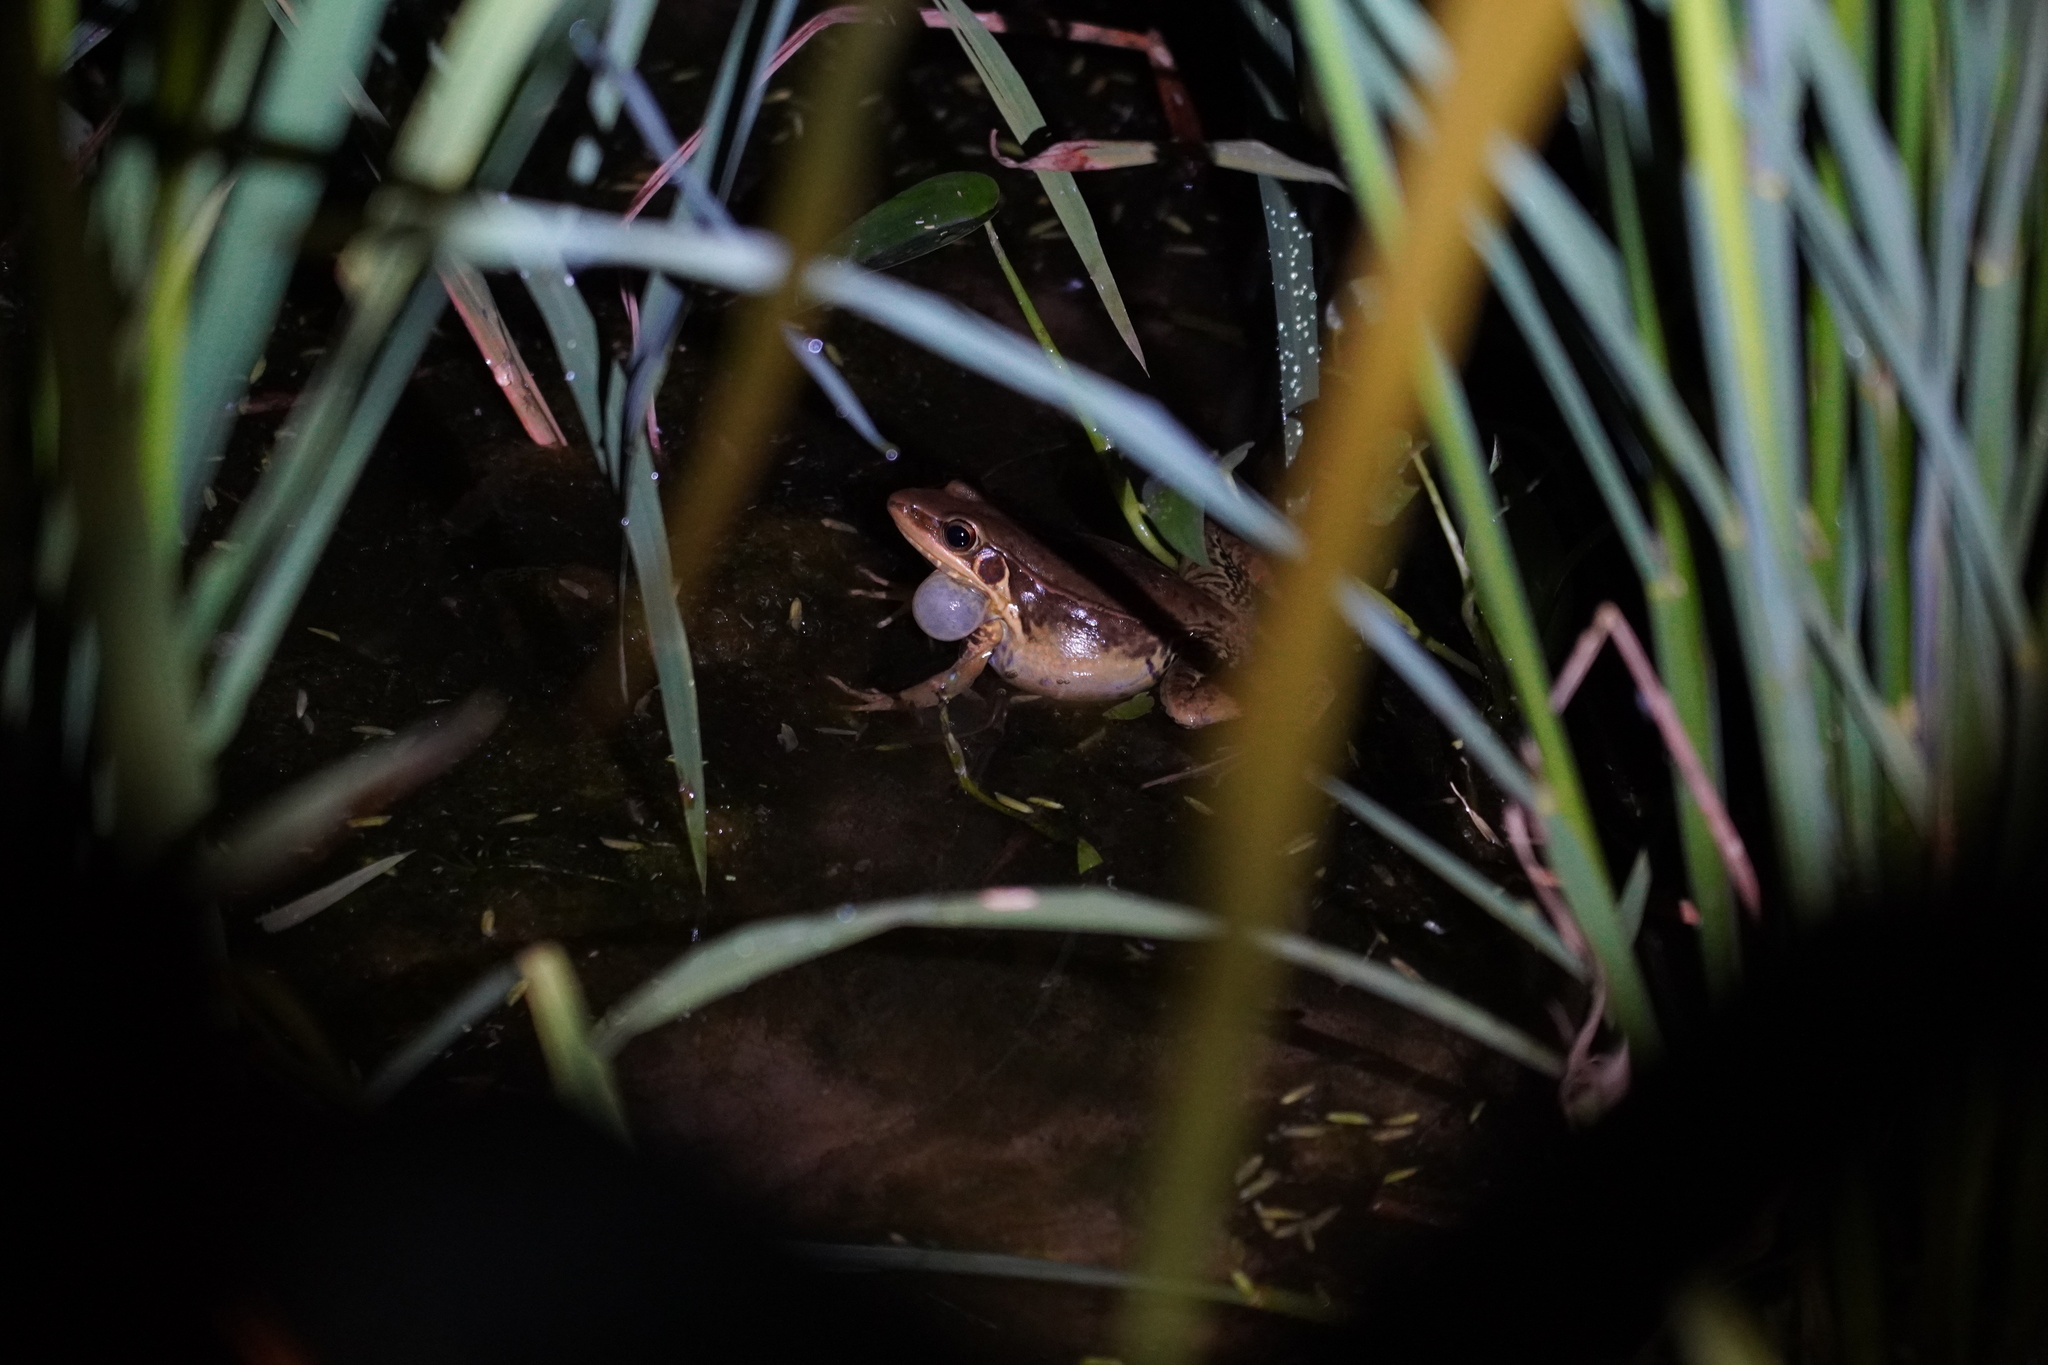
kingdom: Animalia
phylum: Chordata
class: Amphibia
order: Anura
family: Ranidae
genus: Sylvirana
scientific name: Sylvirana guentheri
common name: Guenther's amoy frog
